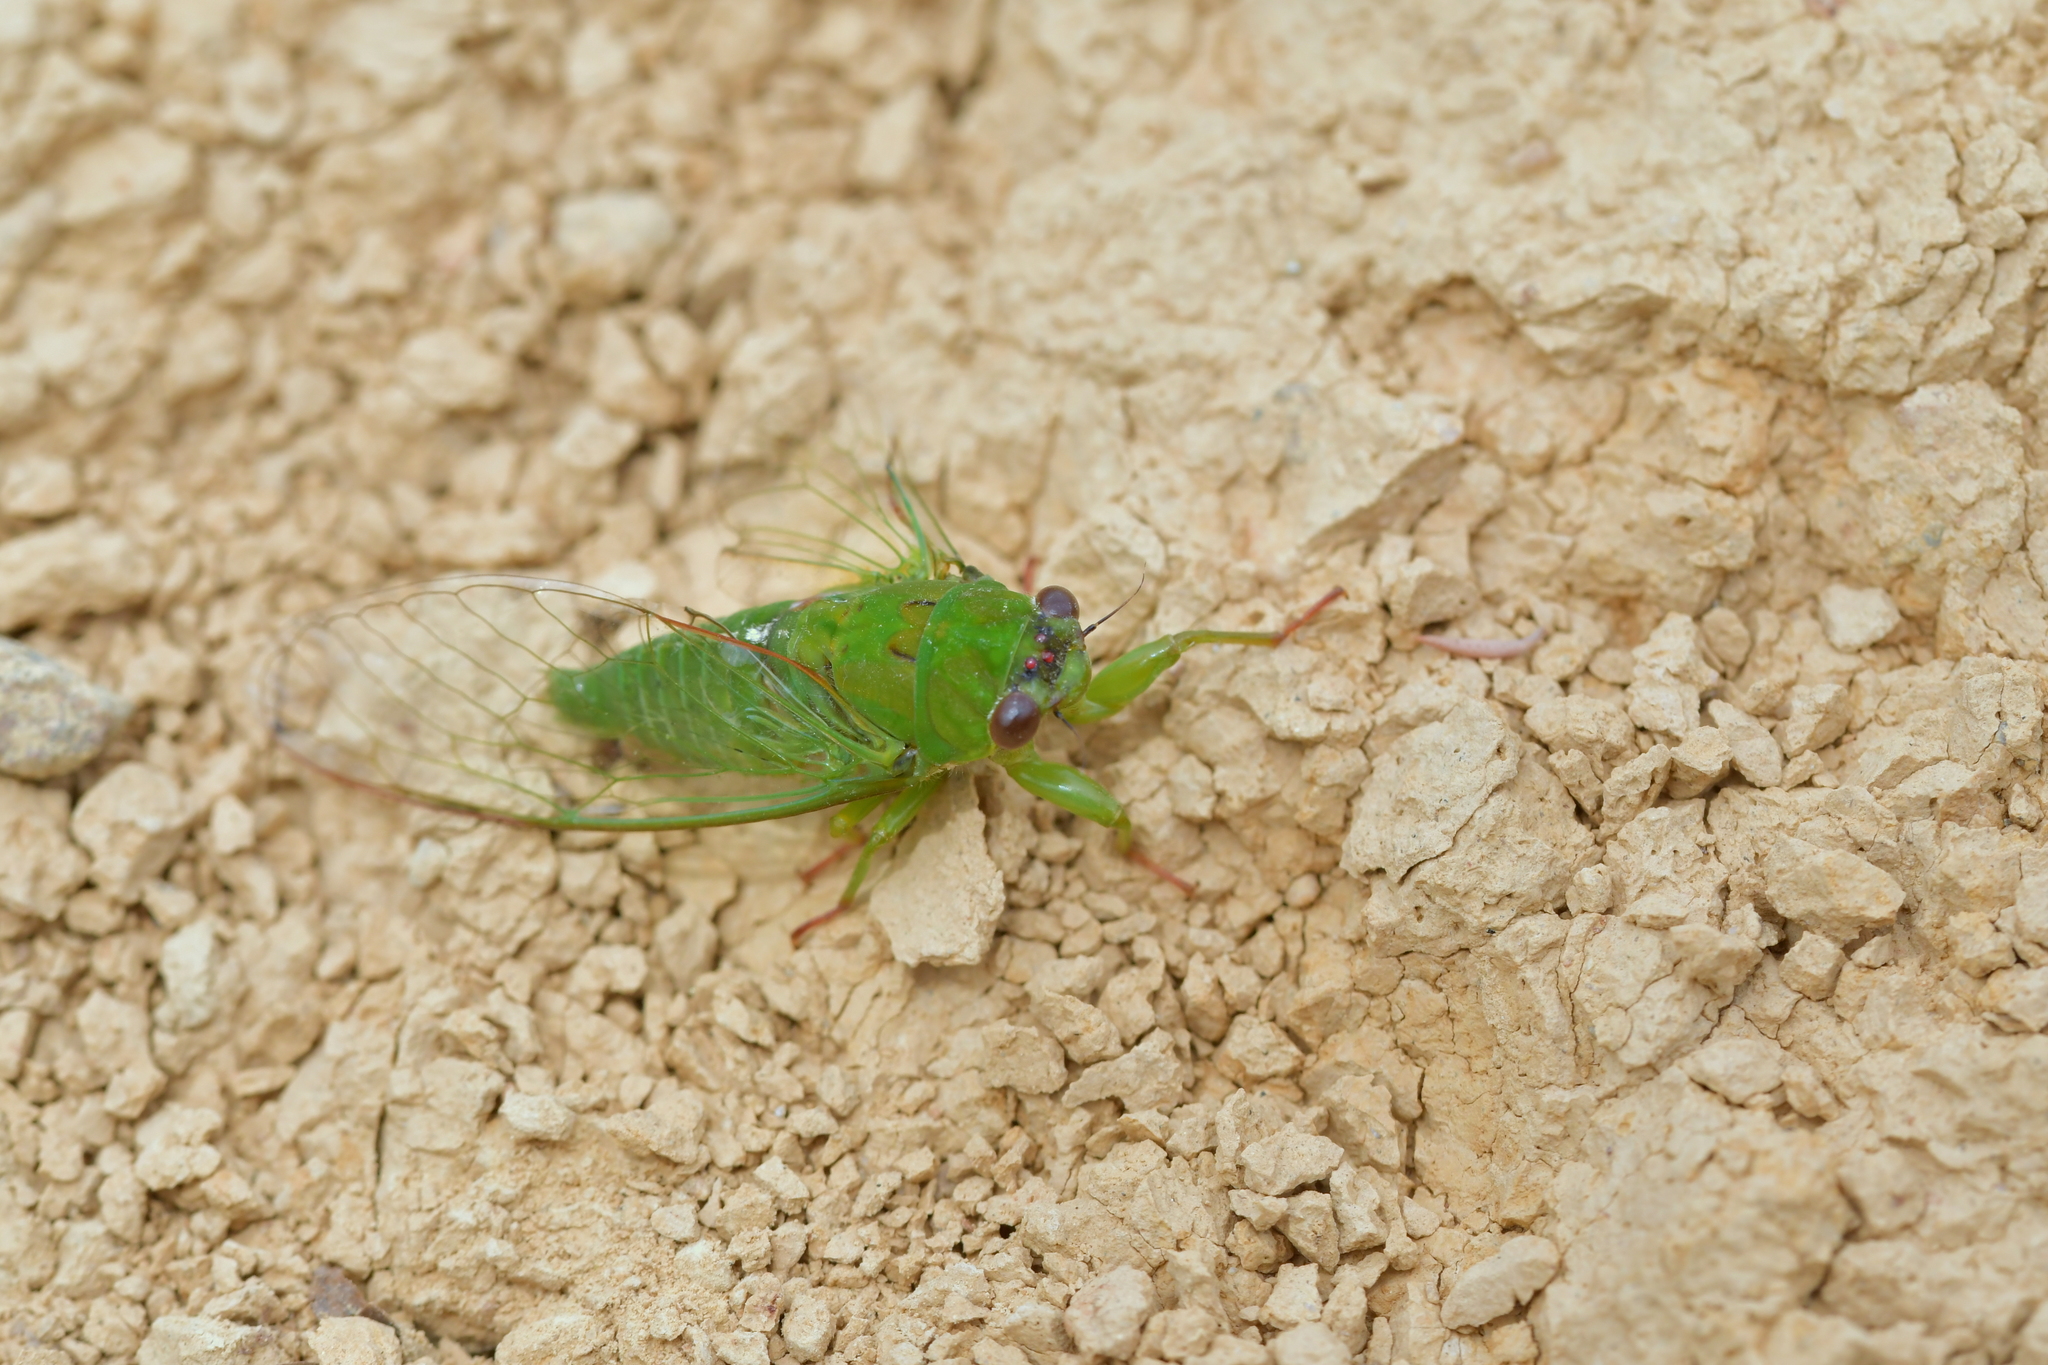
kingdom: Animalia
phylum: Arthropoda
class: Insecta
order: Hemiptera
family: Cicadidae
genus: Kikihia
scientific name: Kikihia ochrina
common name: April green cicada
